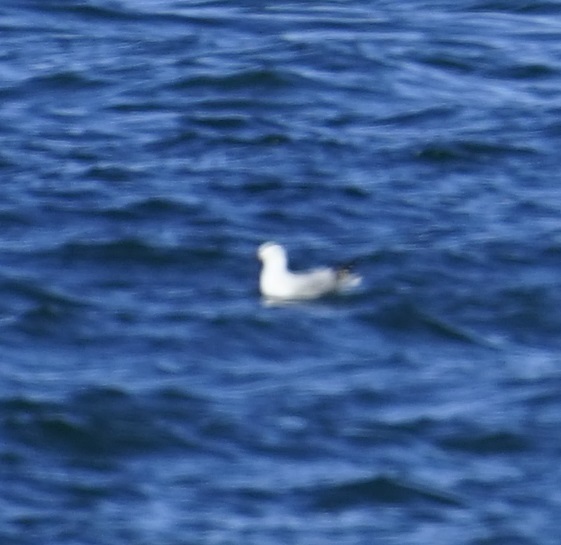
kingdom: Animalia
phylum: Chordata
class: Aves
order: Charadriiformes
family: Laridae
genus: Chroicocephalus
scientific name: Chroicocephalus novaehollandiae
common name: Silver gull
